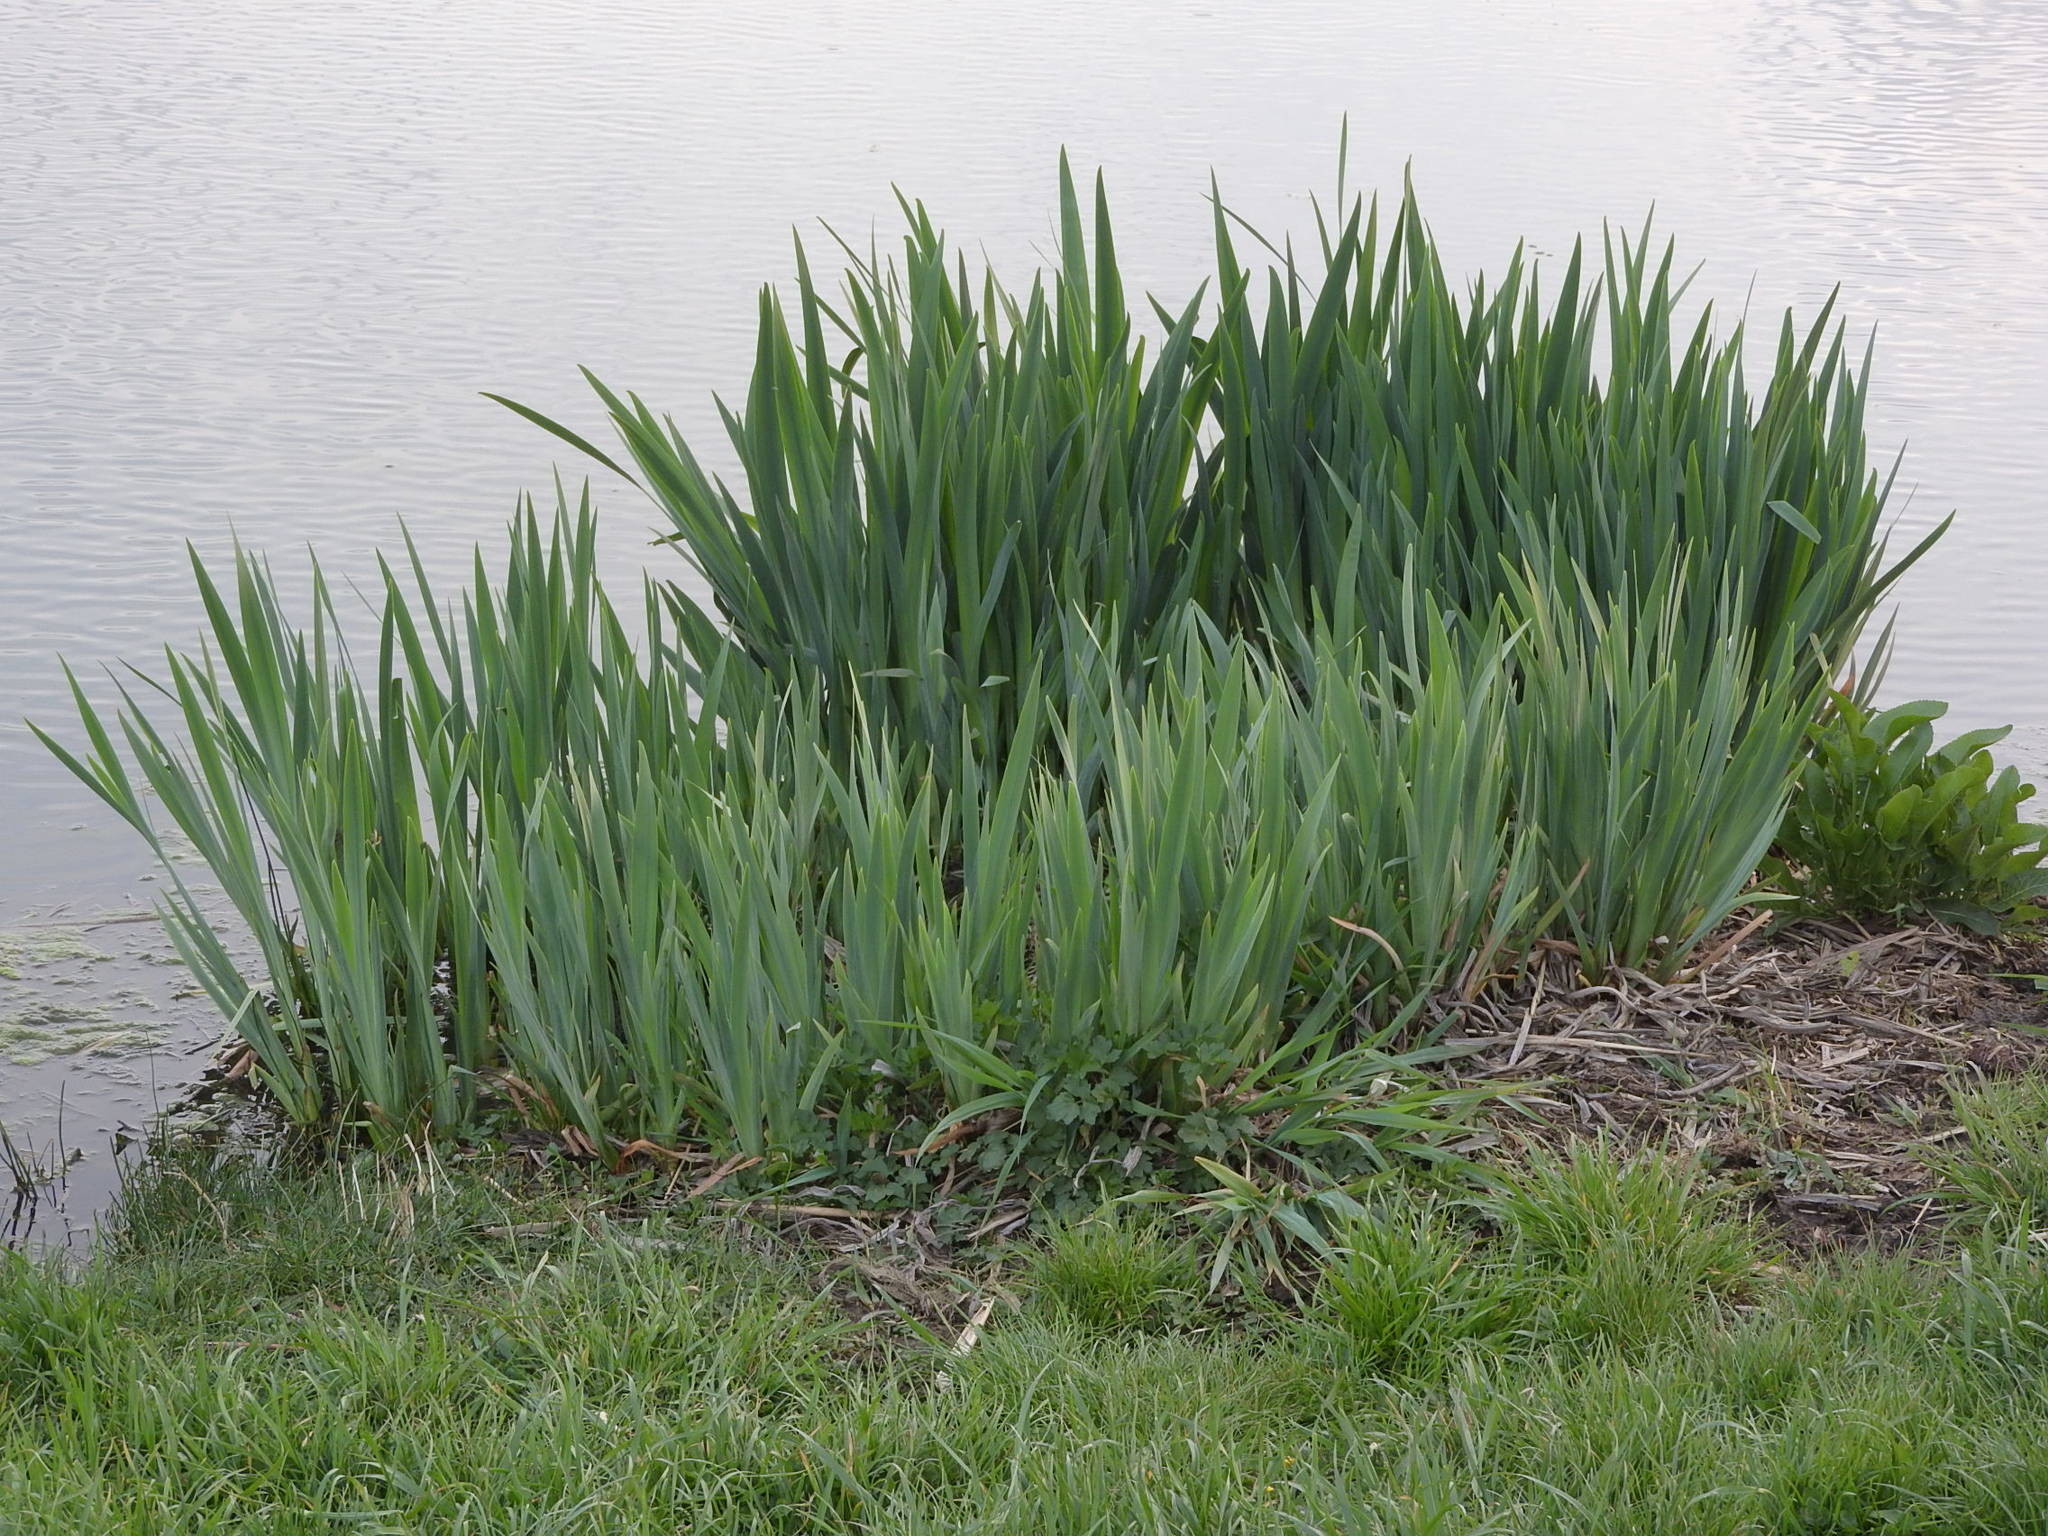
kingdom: Plantae
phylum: Tracheophyta
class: Liliopsida
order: Asparagales
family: Iridaceae
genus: Iris
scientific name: Iris pseudacorus
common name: Yellow flag
